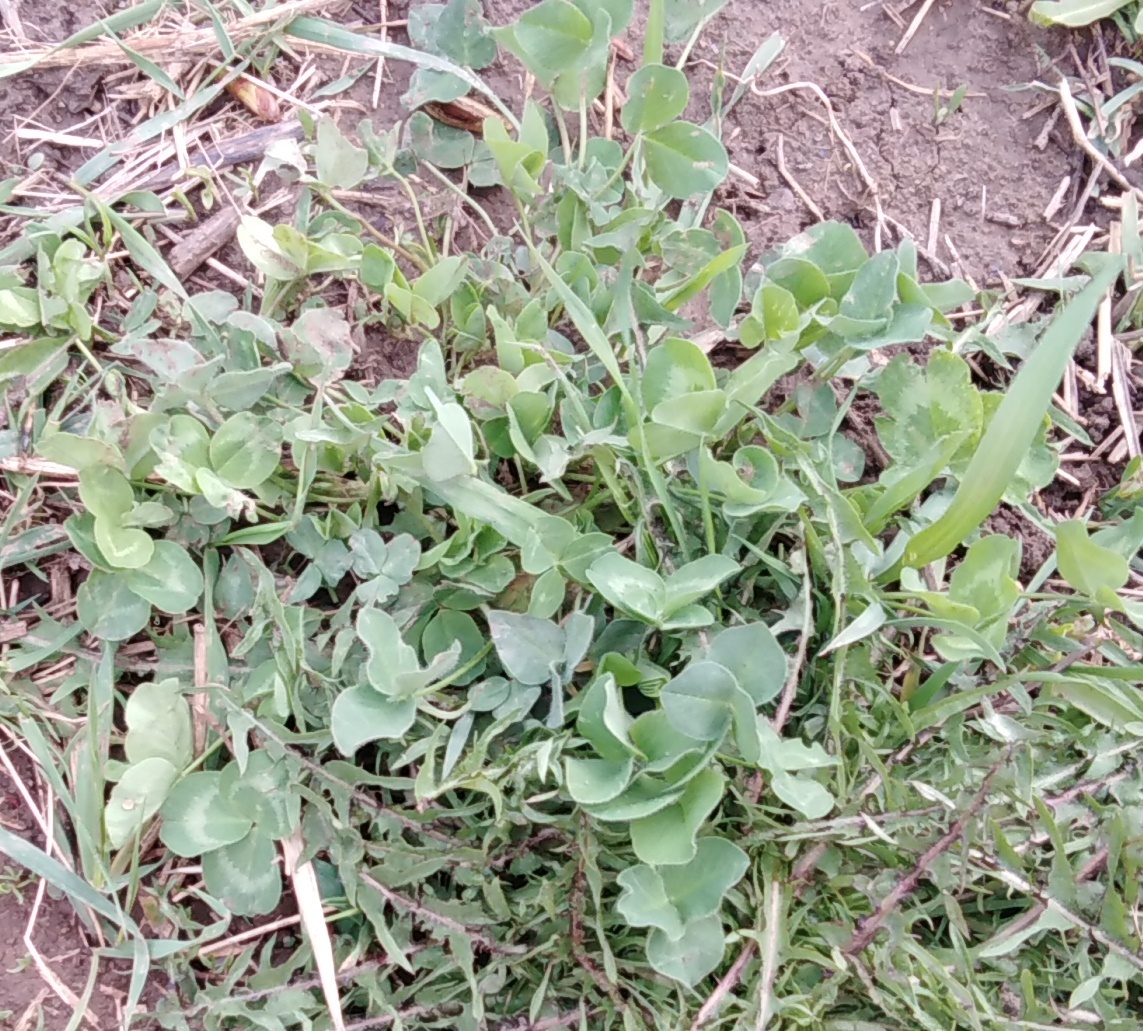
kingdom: Plantae
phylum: Tracheophyta
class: Magnoliopsida
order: Fabales
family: Fabaceae
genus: Trifolium
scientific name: Trifolium pratense
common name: Red clover
